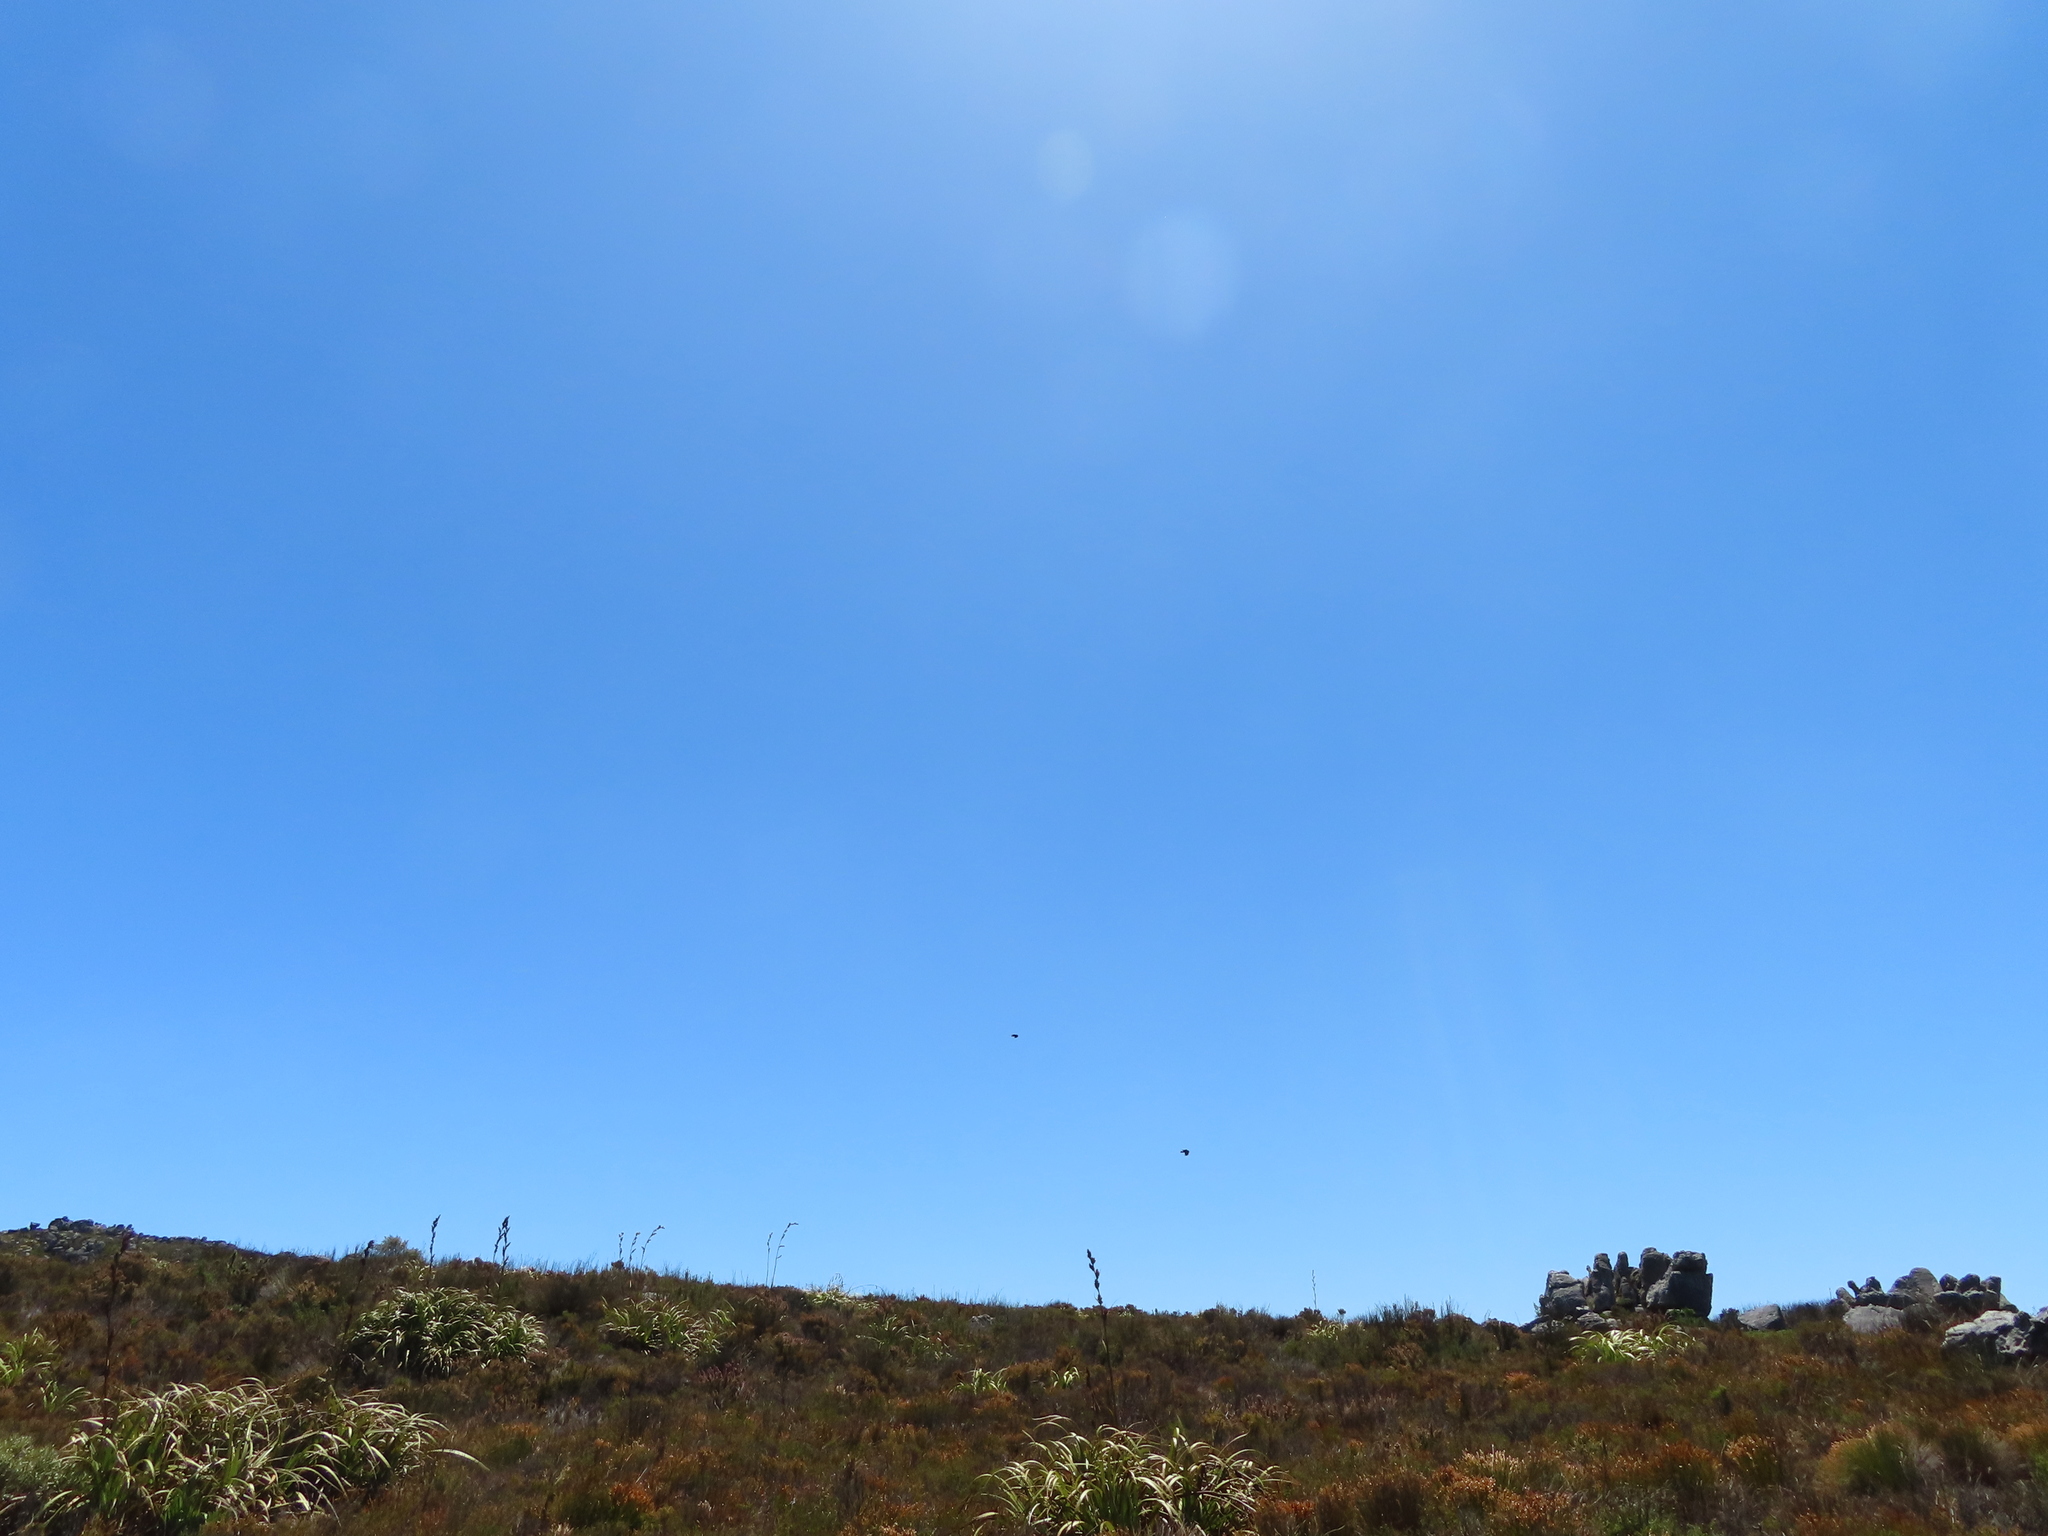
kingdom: Plantae
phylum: Tracheophyta
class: Liliopsida
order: Poales
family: Cyperaceae
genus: Tetraria
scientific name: Tetraria thermalis
